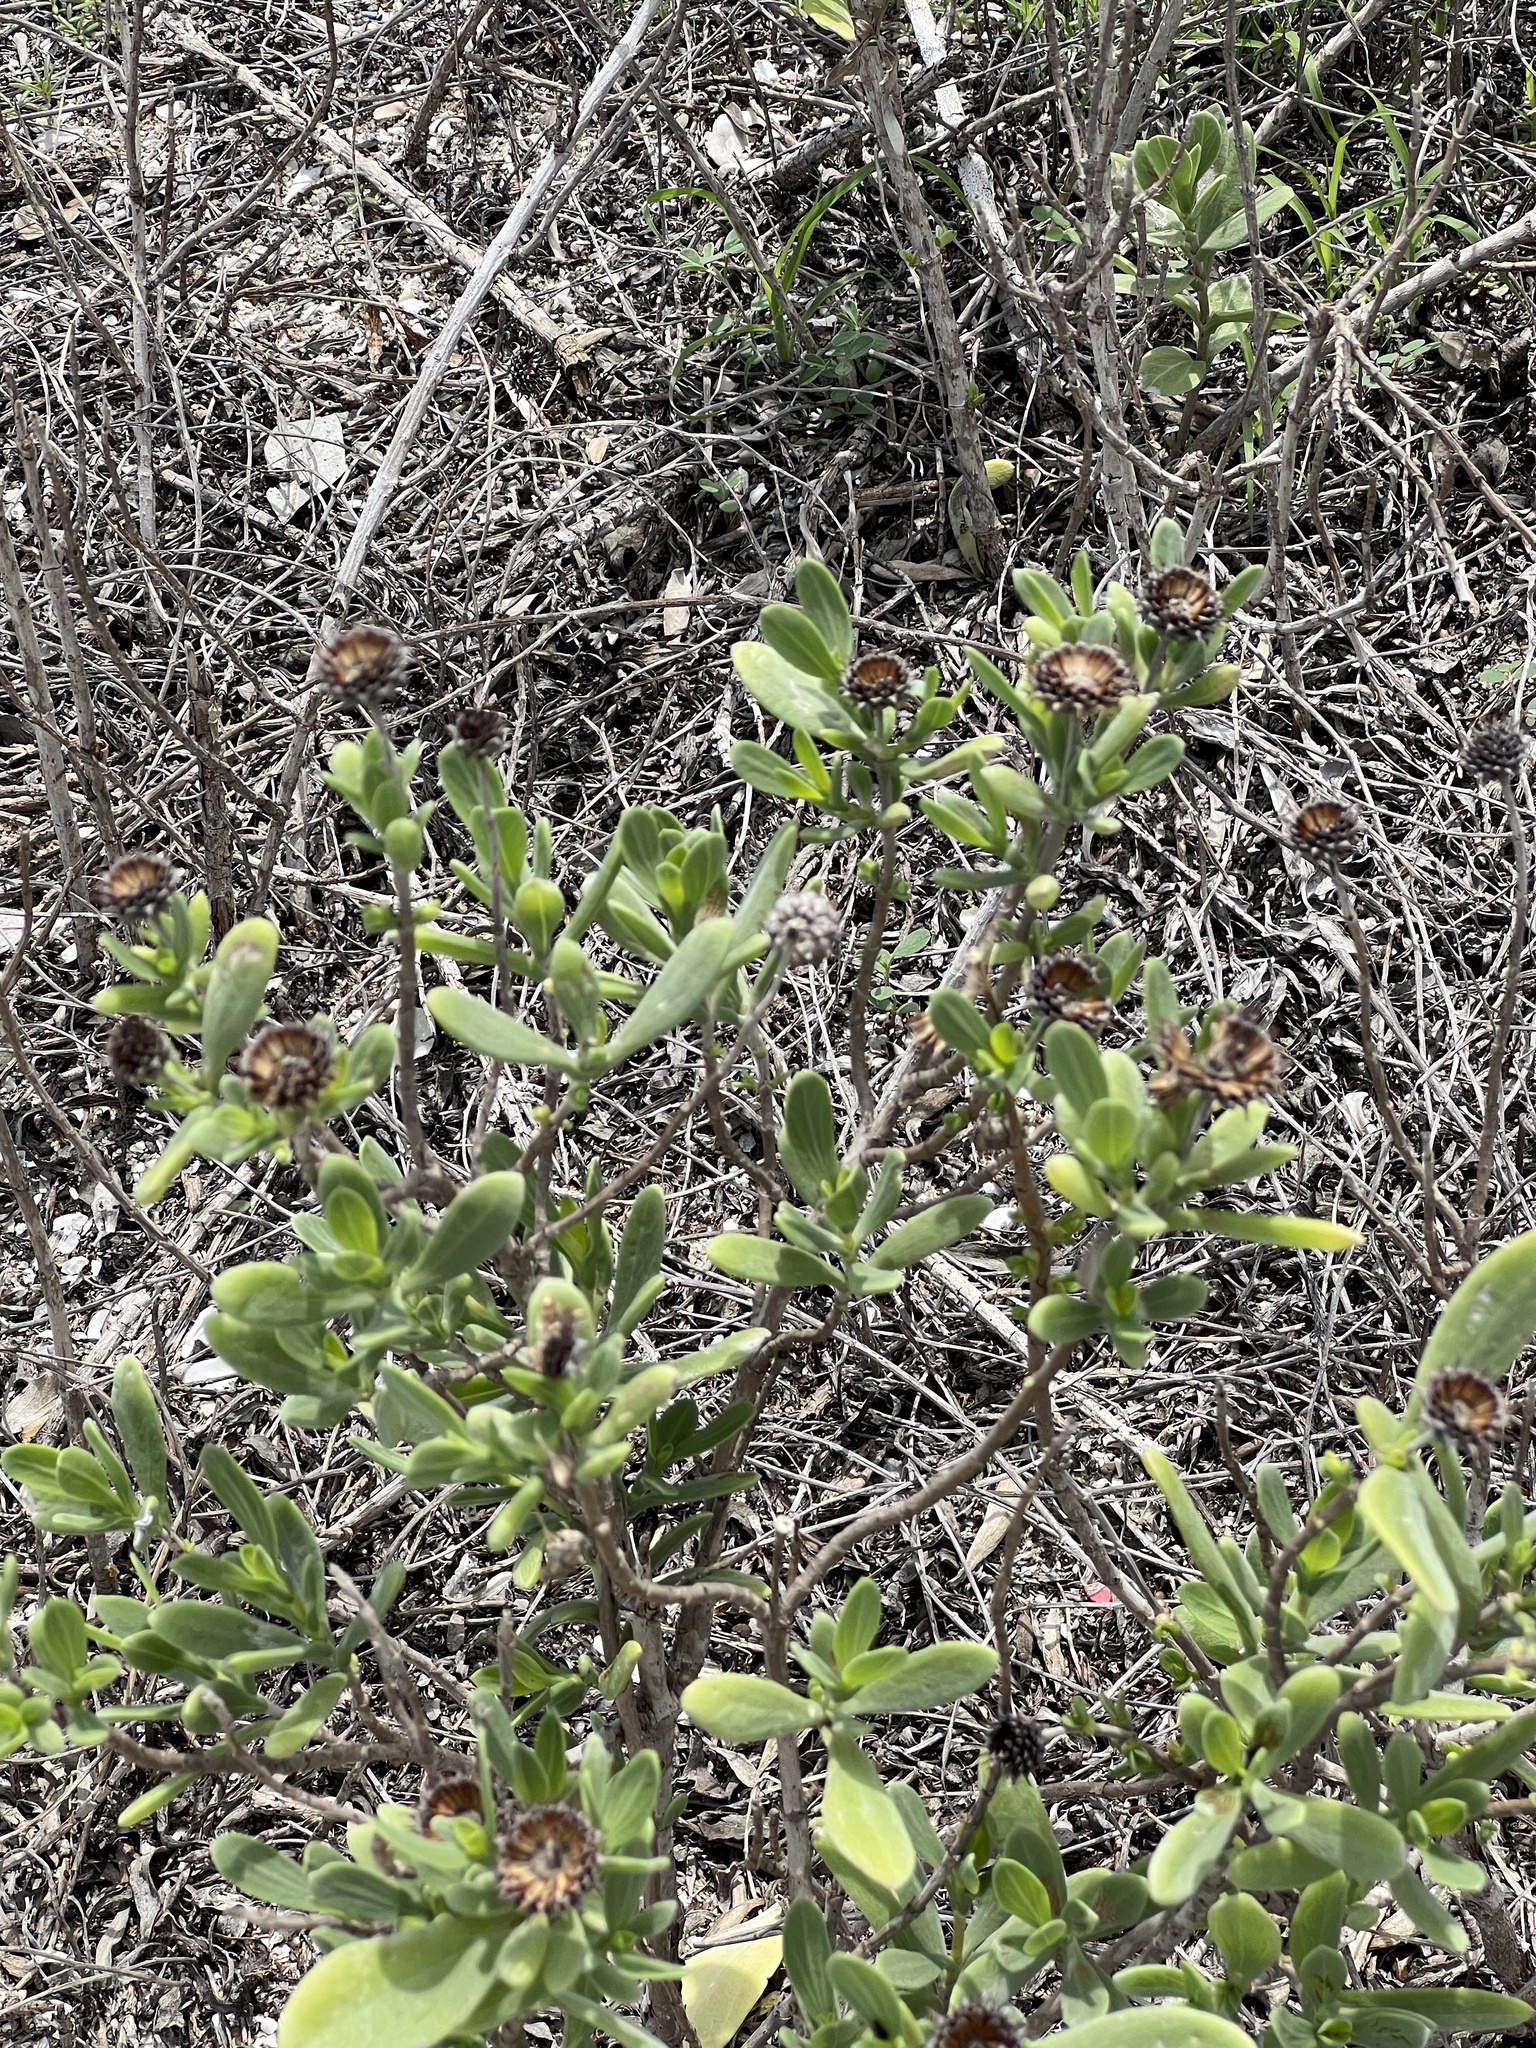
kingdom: Plantae
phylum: Tracheophyta
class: Magnoliopsida
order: Asterales
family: Asteraceae
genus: Borrichia
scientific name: Borrichia frutescens
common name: Sea oxeye
